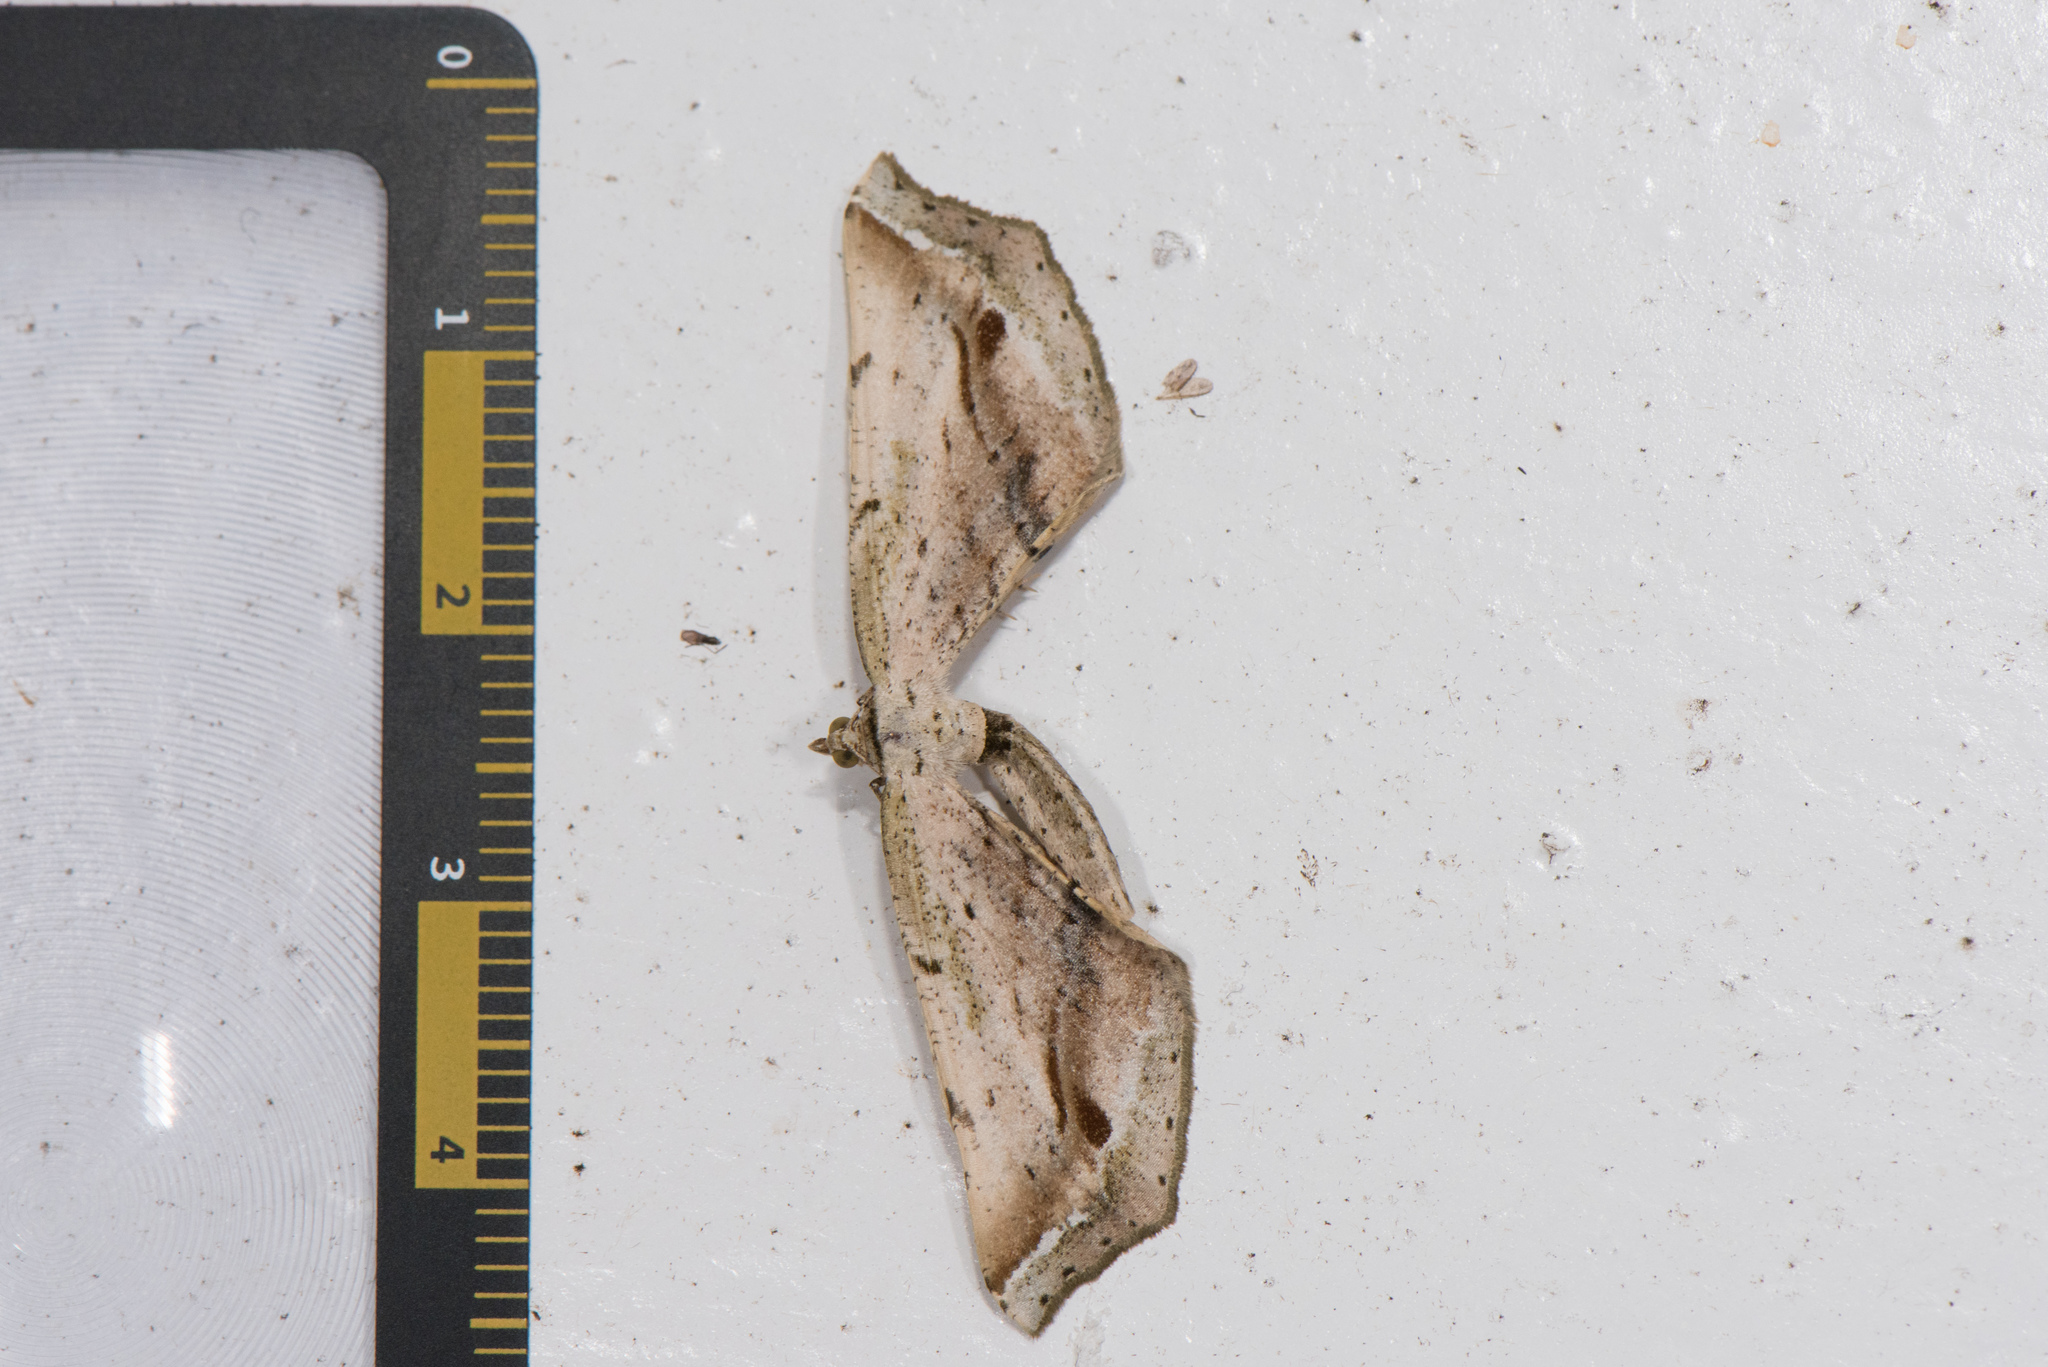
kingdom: Animalia
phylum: Arthropoda
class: Insecta
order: Lepidoptera
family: Geometridae
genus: Oxymacaria
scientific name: Oxymacaria truncaria
